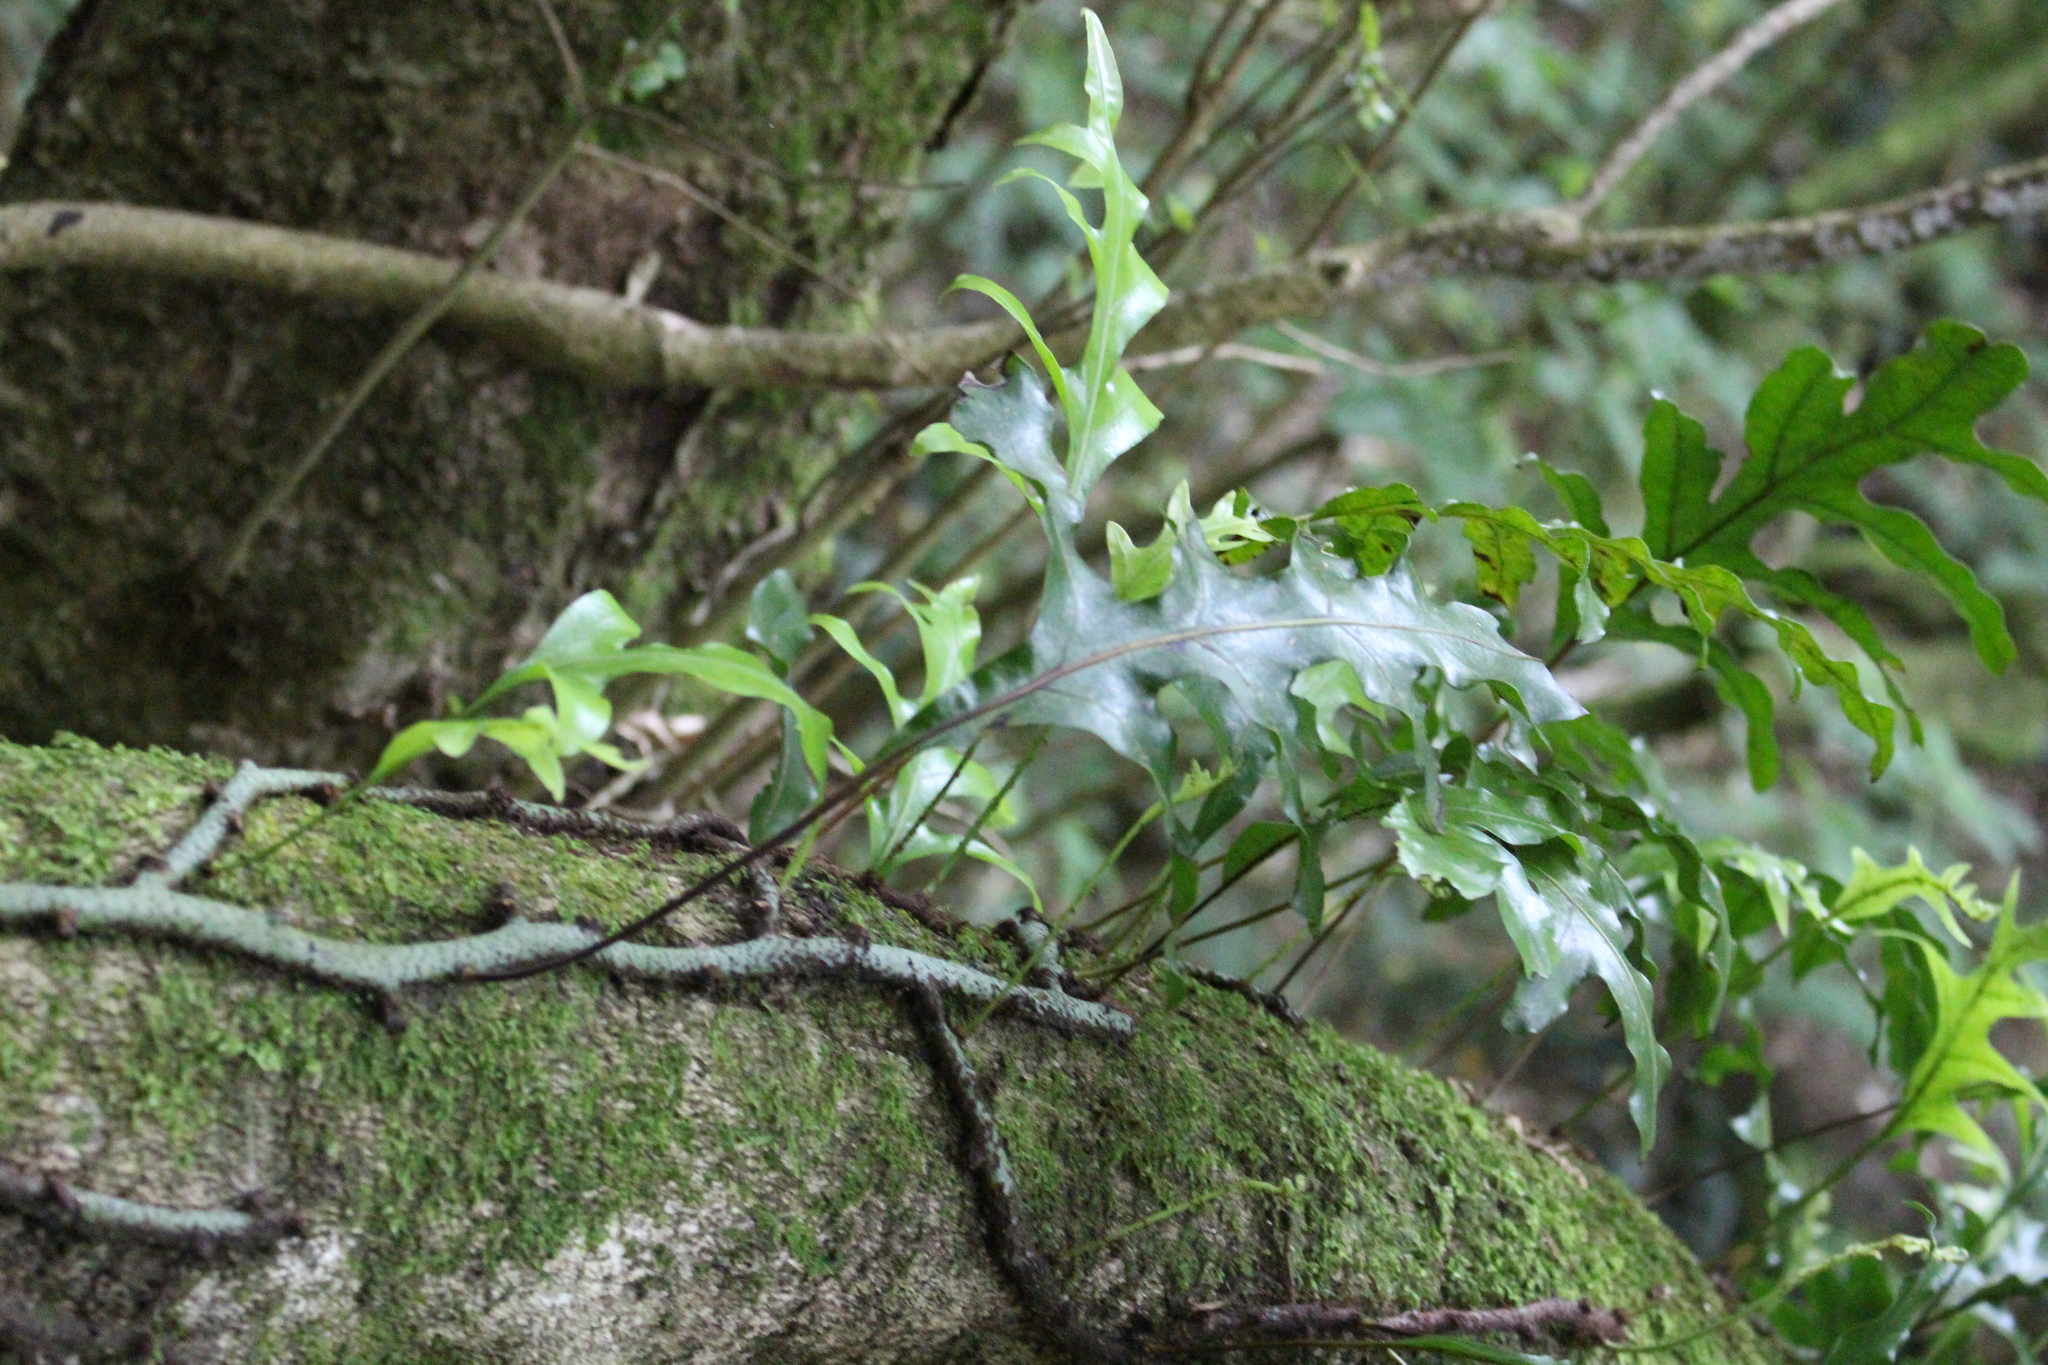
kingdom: Plantae
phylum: Tracheophyta
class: Polypodiopsida
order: Polypodiales
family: Polypodiaceae
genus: Lecanopteris
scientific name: Lecanopteris pustulata
